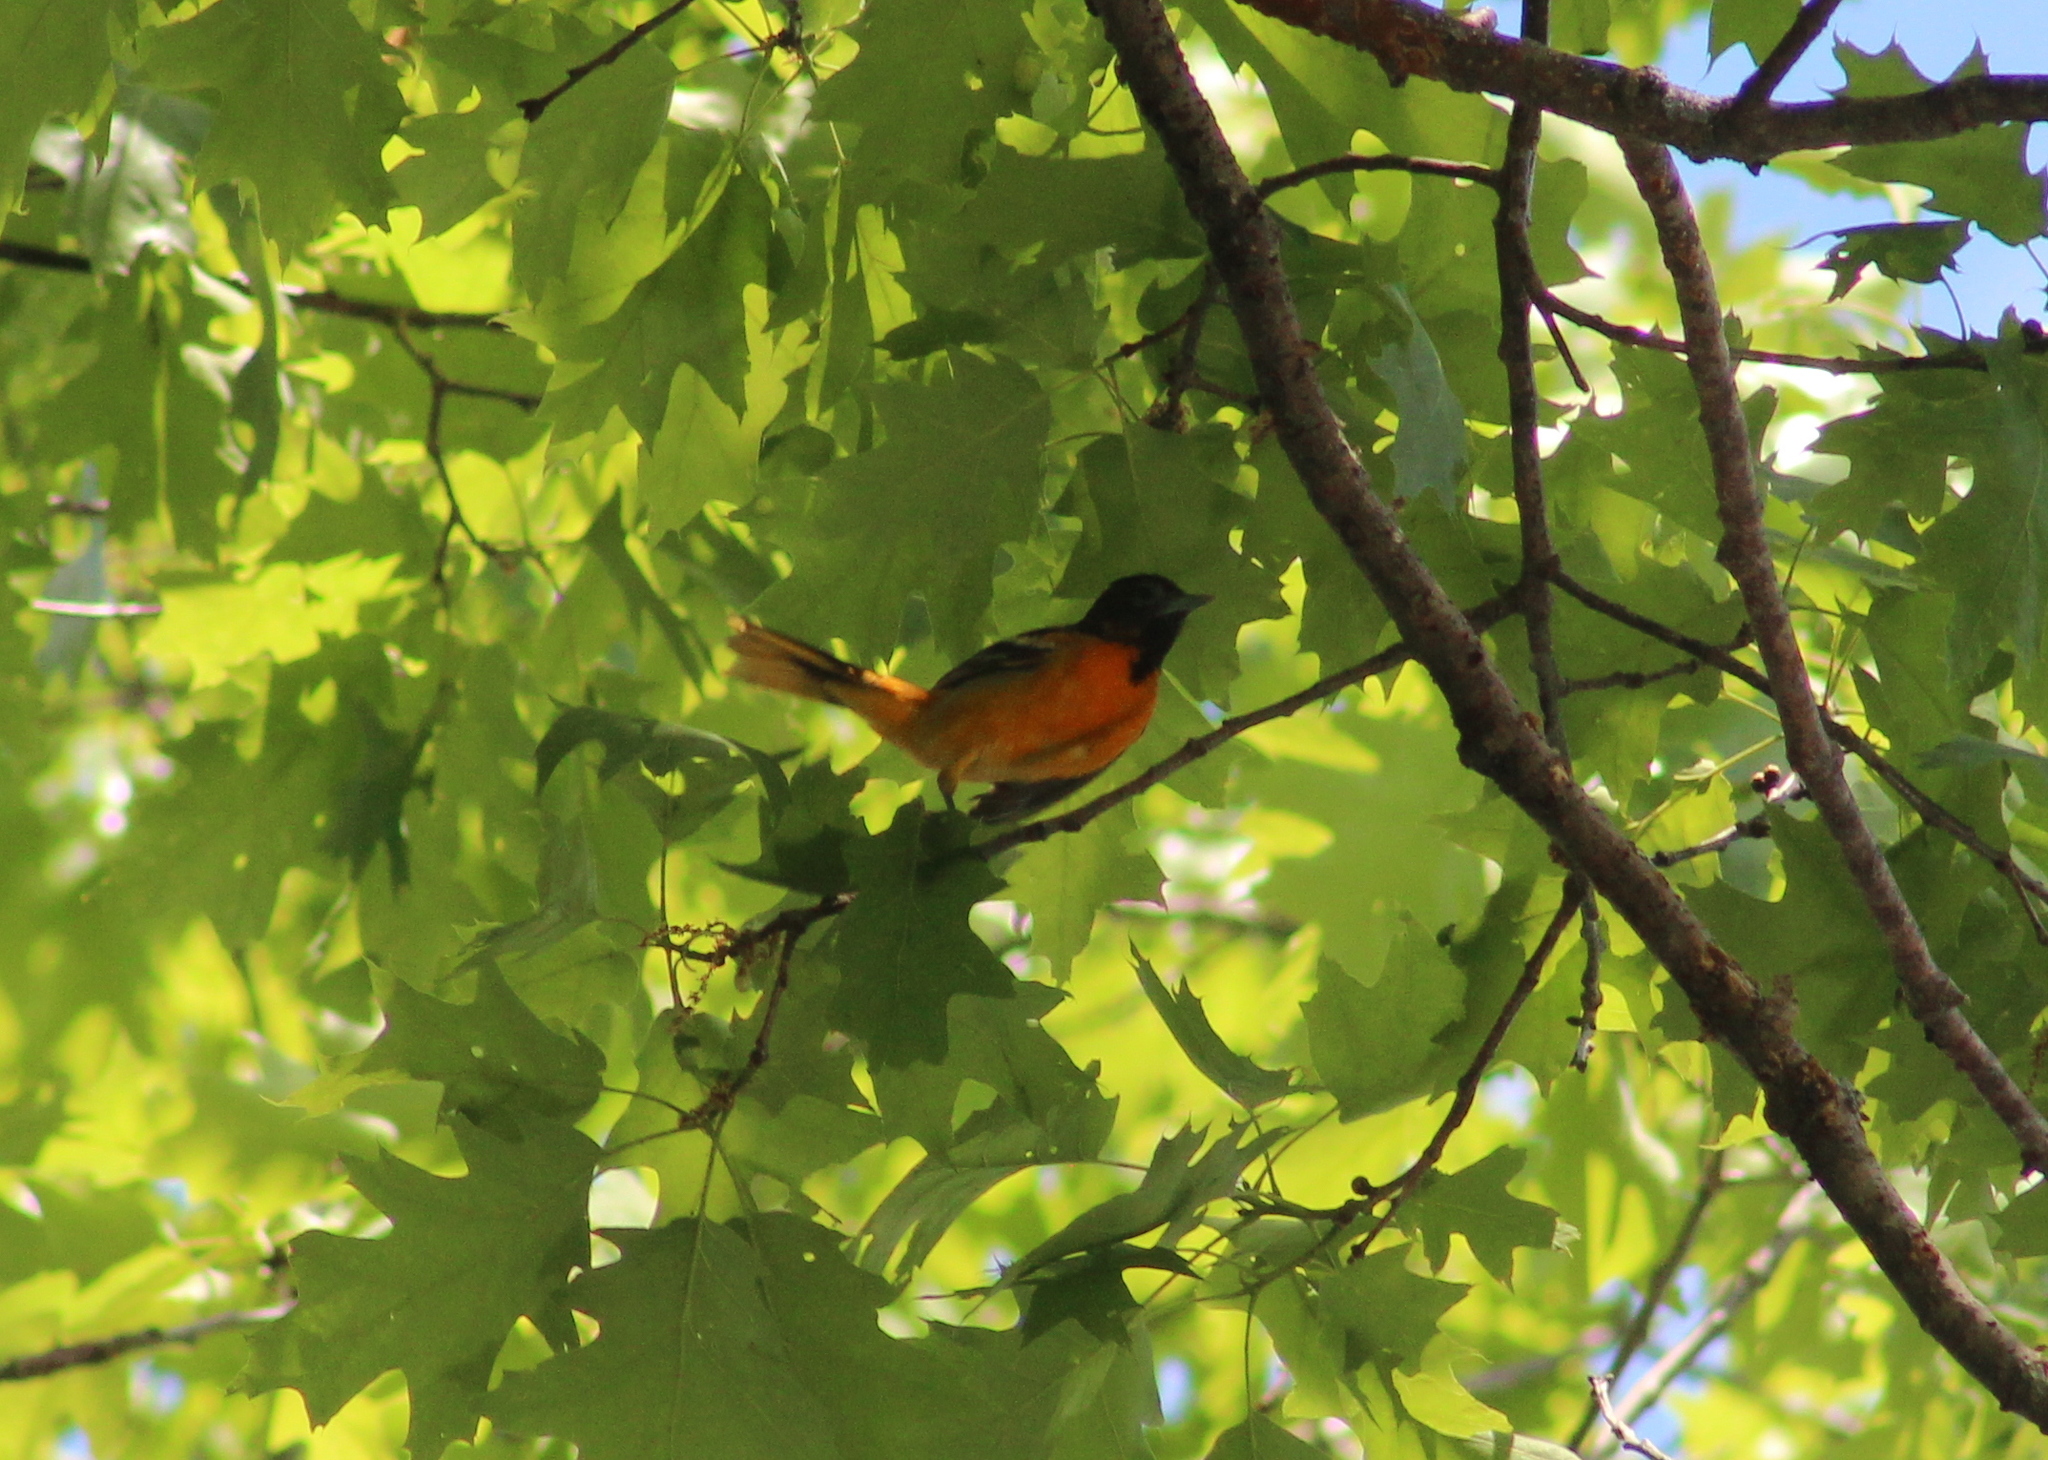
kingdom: Animalia
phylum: Chordata
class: Aves
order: Passeriformes
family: Icteridae
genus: Icterus
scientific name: Icterus galbula
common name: Baltimore oriole
